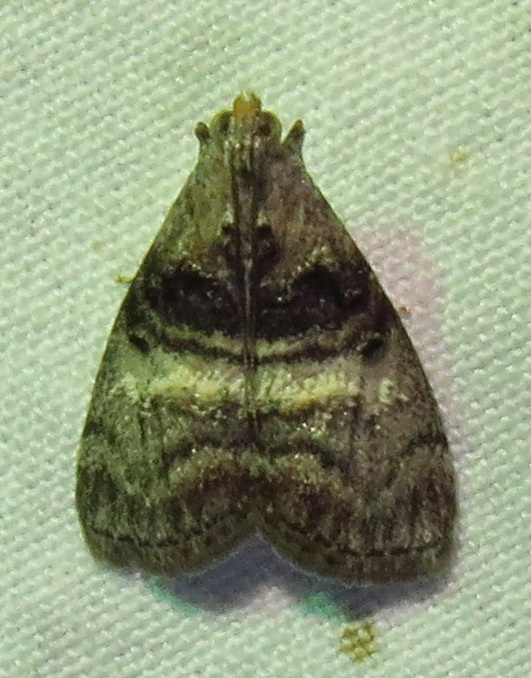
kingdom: Animalia
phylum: Arthropoda
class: Insecta
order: Lepidoptera
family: Pyralidae
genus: Pococera
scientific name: Pococera asperatella
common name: Maple webworm moth
